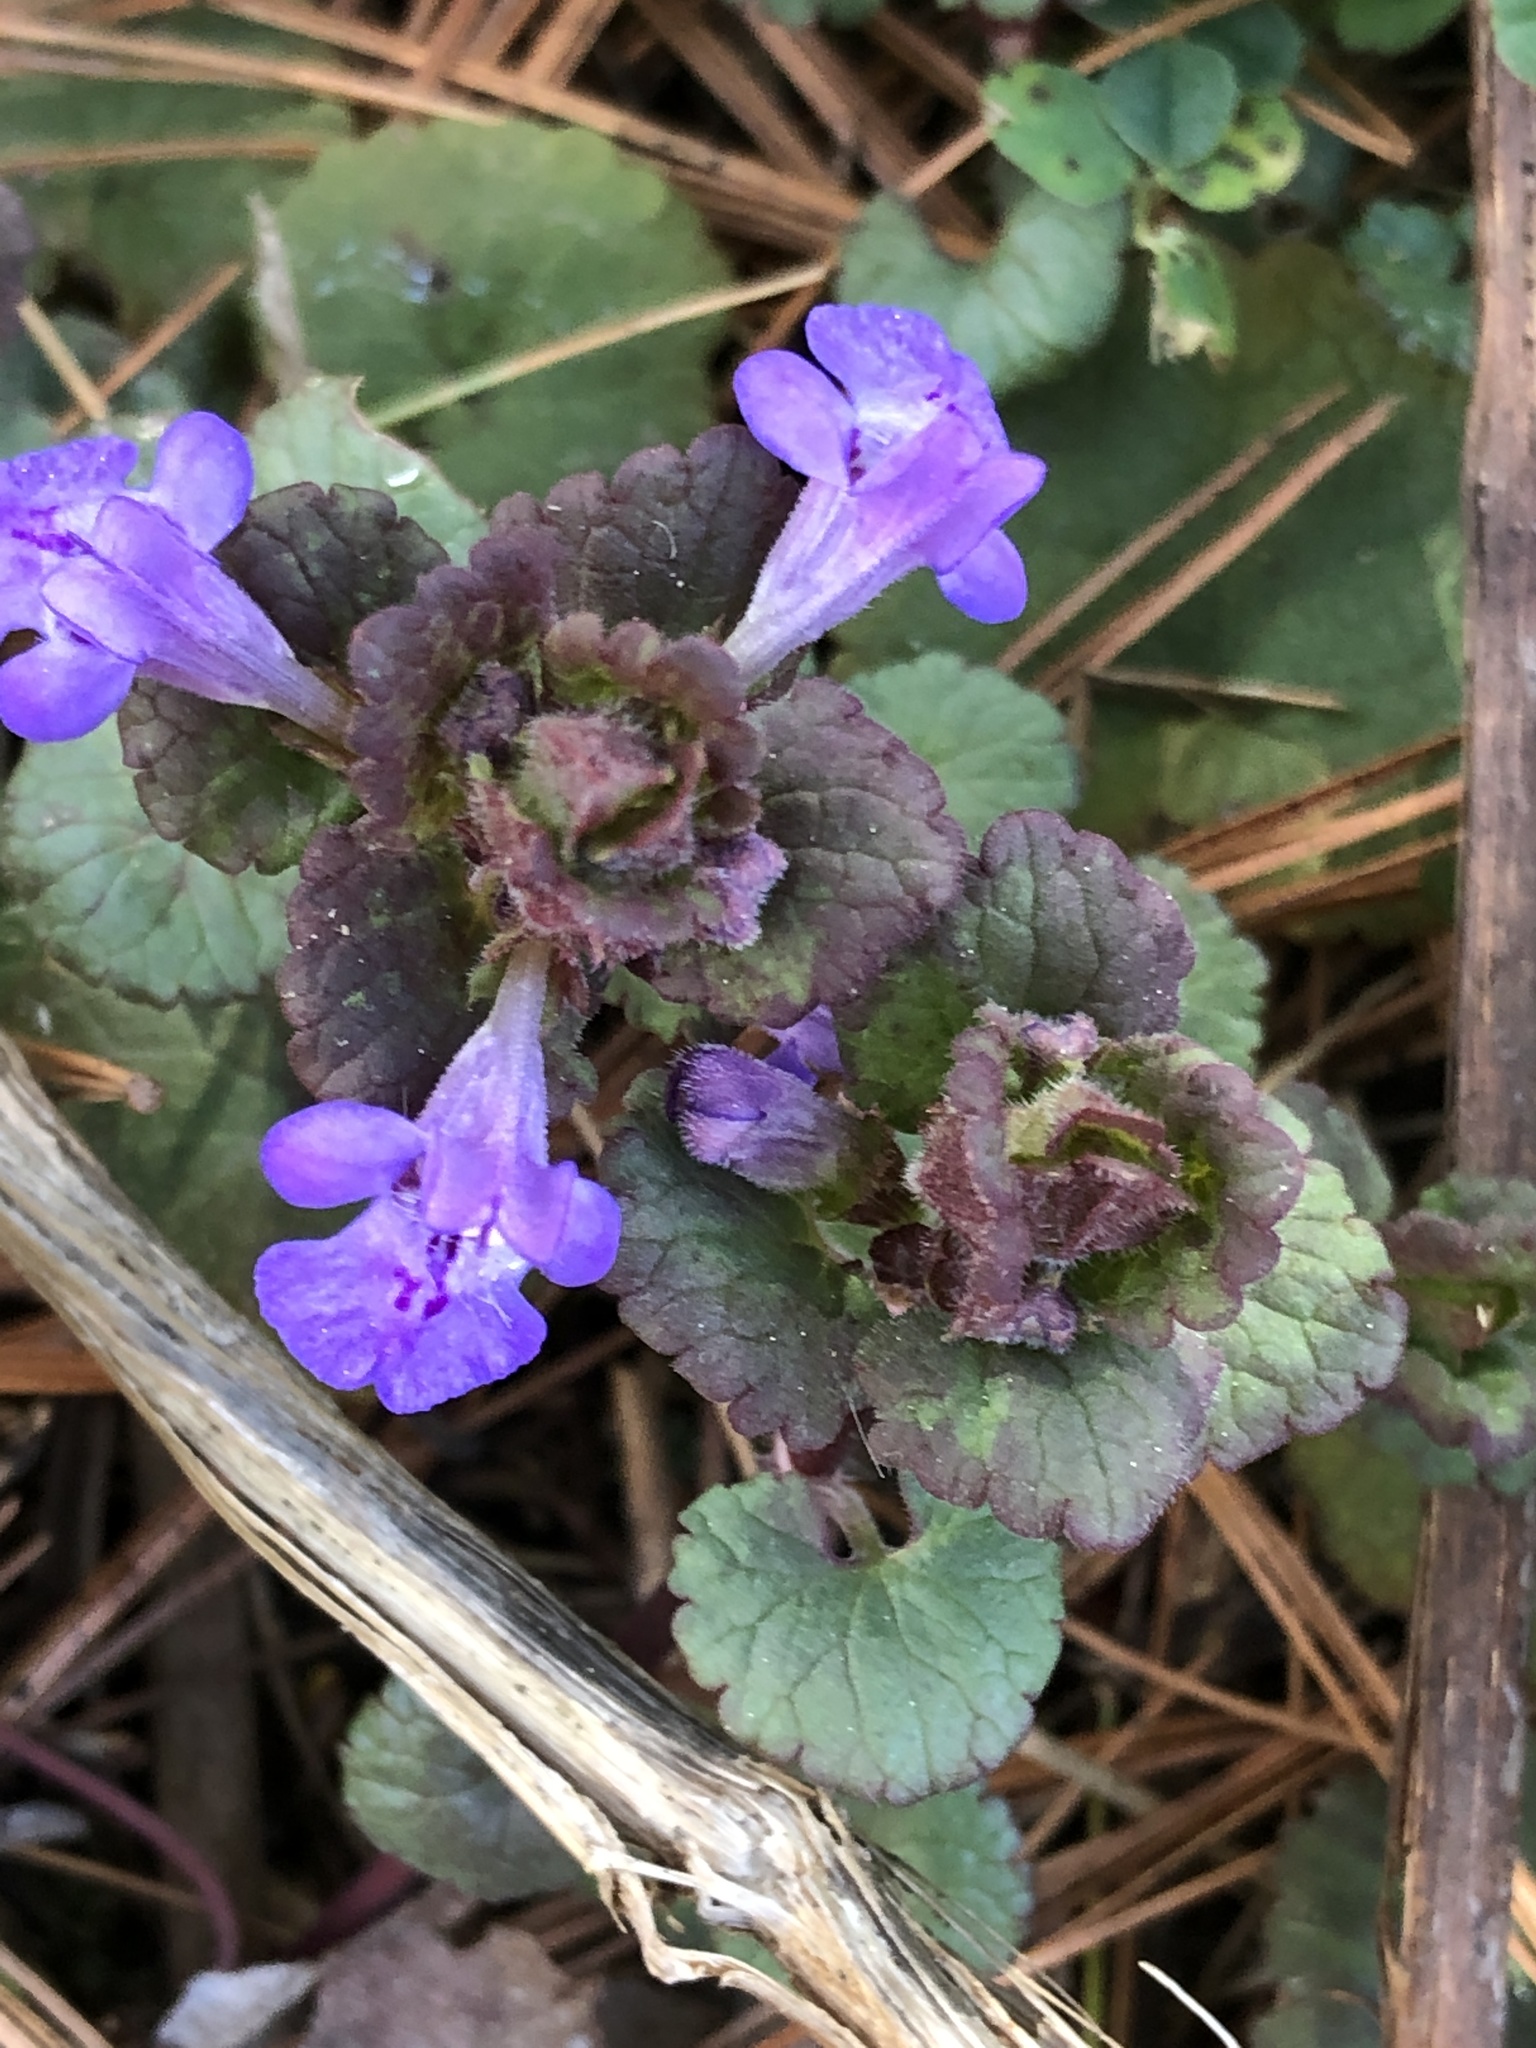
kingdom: Plantae
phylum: Tracheophyta
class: Magnoliopsida
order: Lamiales
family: Lamiaceae
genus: Glechoma
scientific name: Glechoma hederacea
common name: Ground ivy
